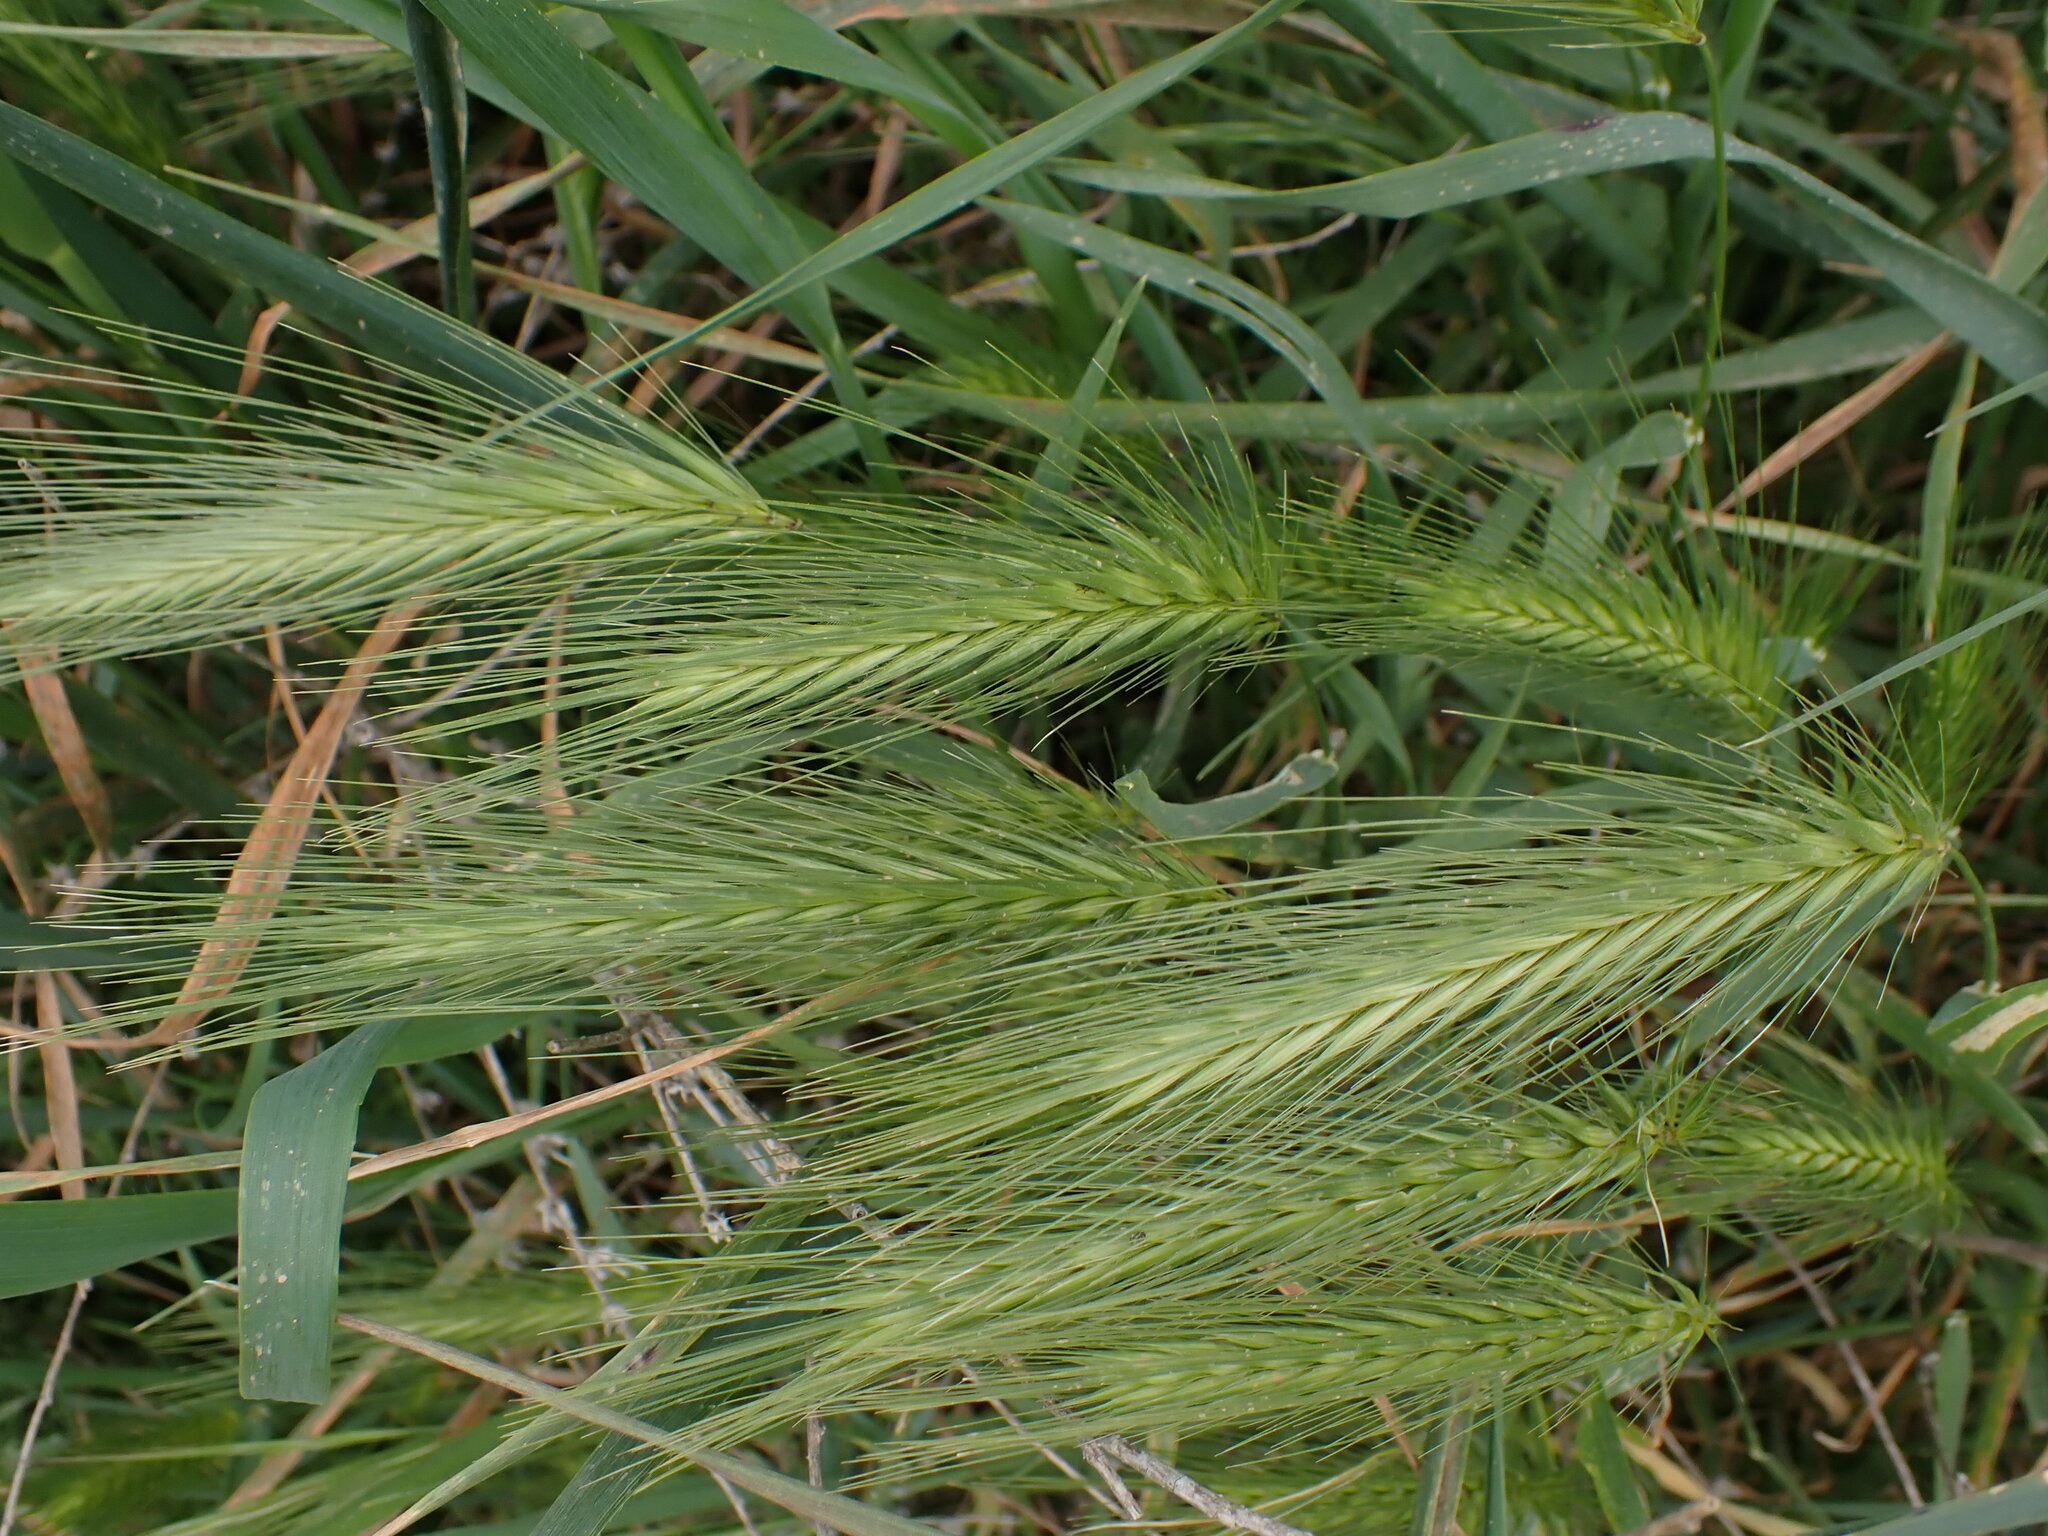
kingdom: Plantae
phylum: Tracheophyta
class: Liliopsida
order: Poales
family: Poaceae
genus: Hordeum
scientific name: Hordeum murinum
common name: Wall barley
